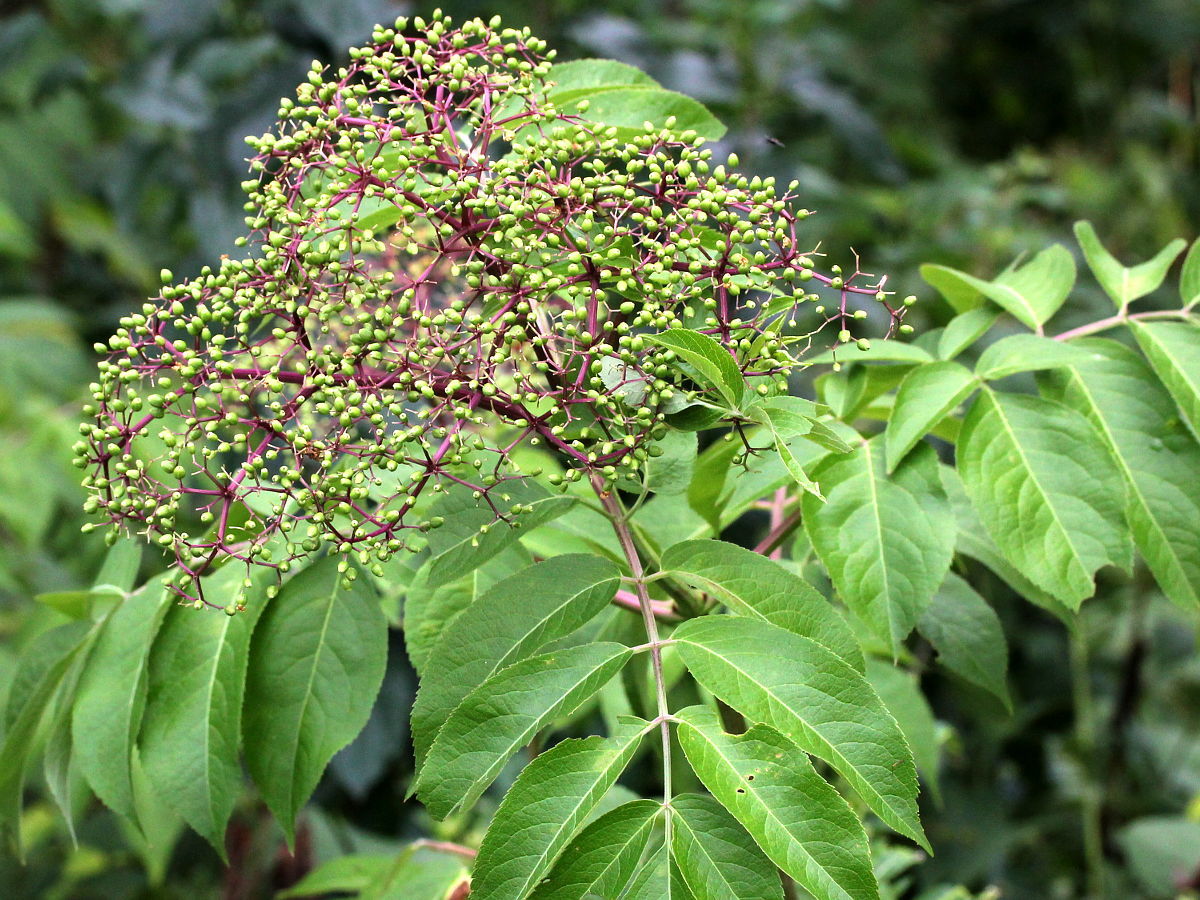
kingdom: Plantae
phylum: Tracheophyta
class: Magnoliopsida
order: Dipsacales
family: Viburnaceae
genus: Sambucus
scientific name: Sambucus canadensis
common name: American elder
